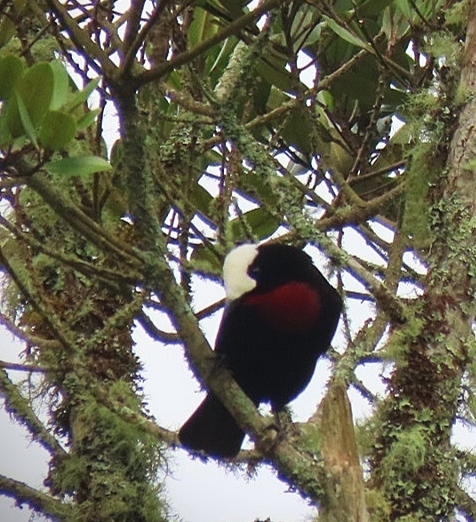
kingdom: Animalia
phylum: Chordata
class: Aves
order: Passeriformes
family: Thraupidae
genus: Sericossypha
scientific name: Sericossypha albocristata
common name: White-capped tanager
